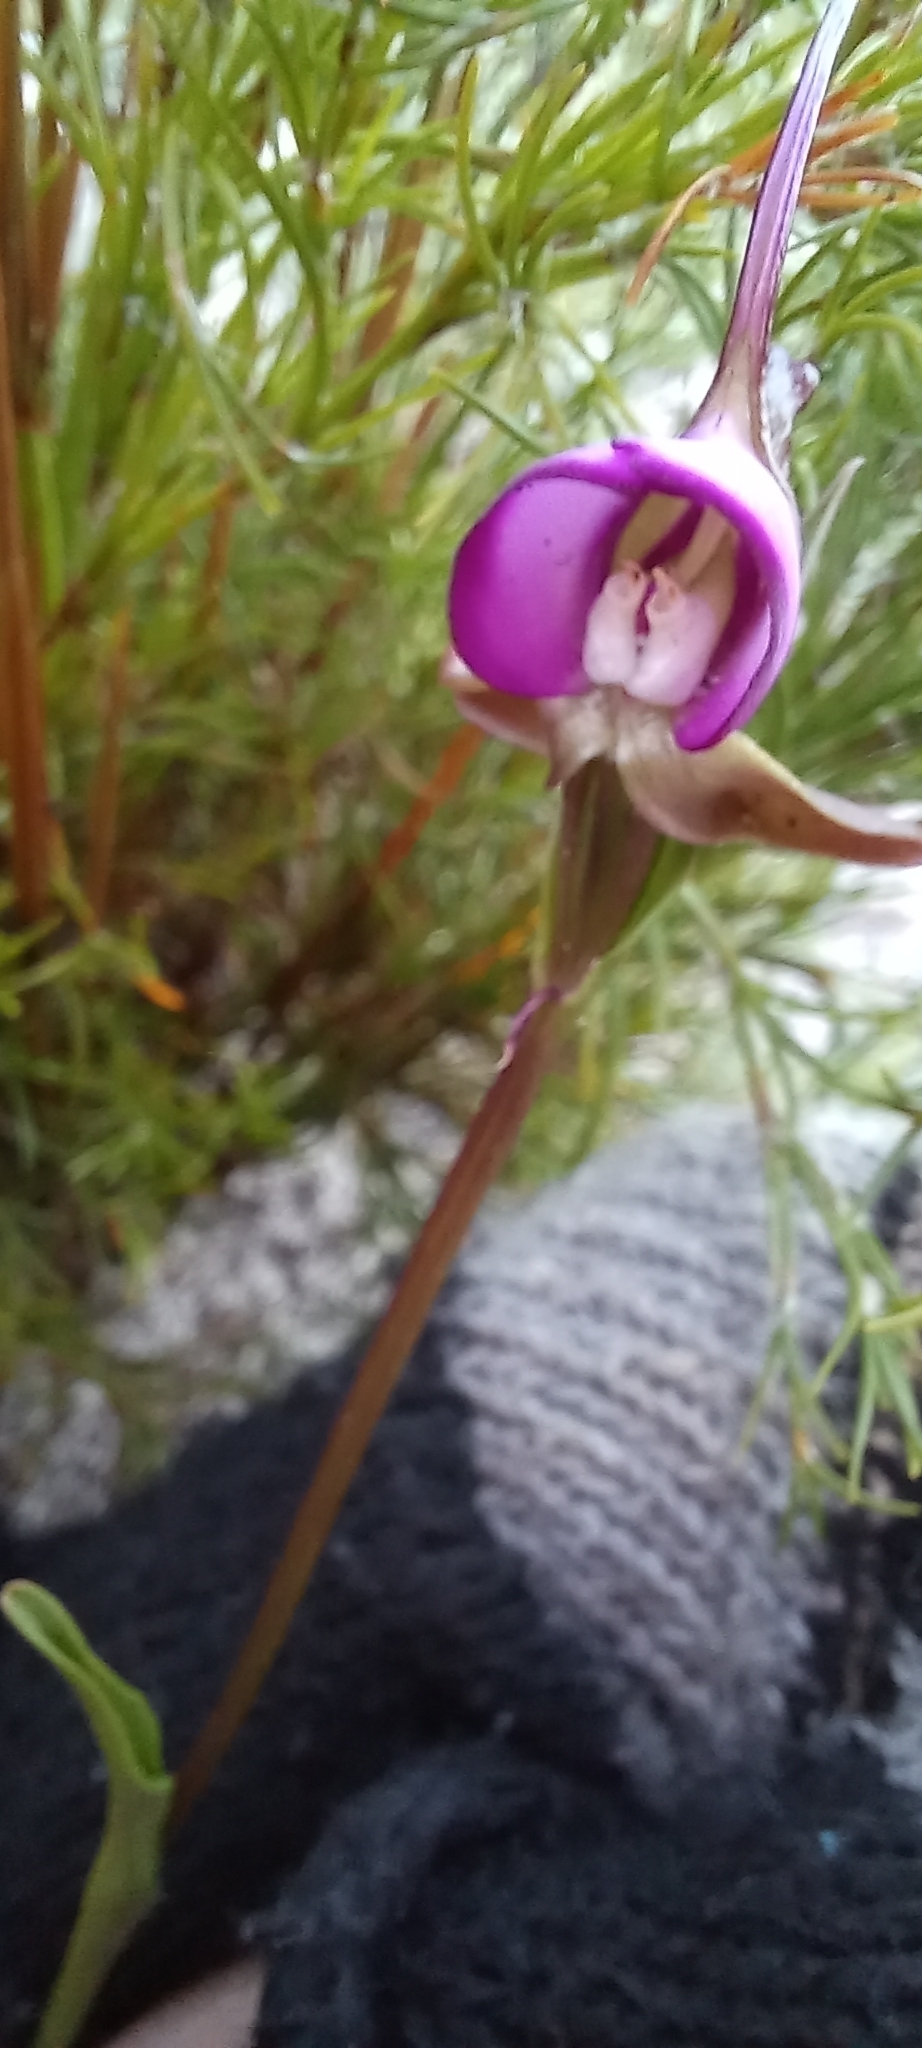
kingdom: Plantae
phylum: Tracheophyta
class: Liliopsida
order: Asparagales
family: Orchidaceae
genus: Disperis
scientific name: Disperis capensis
